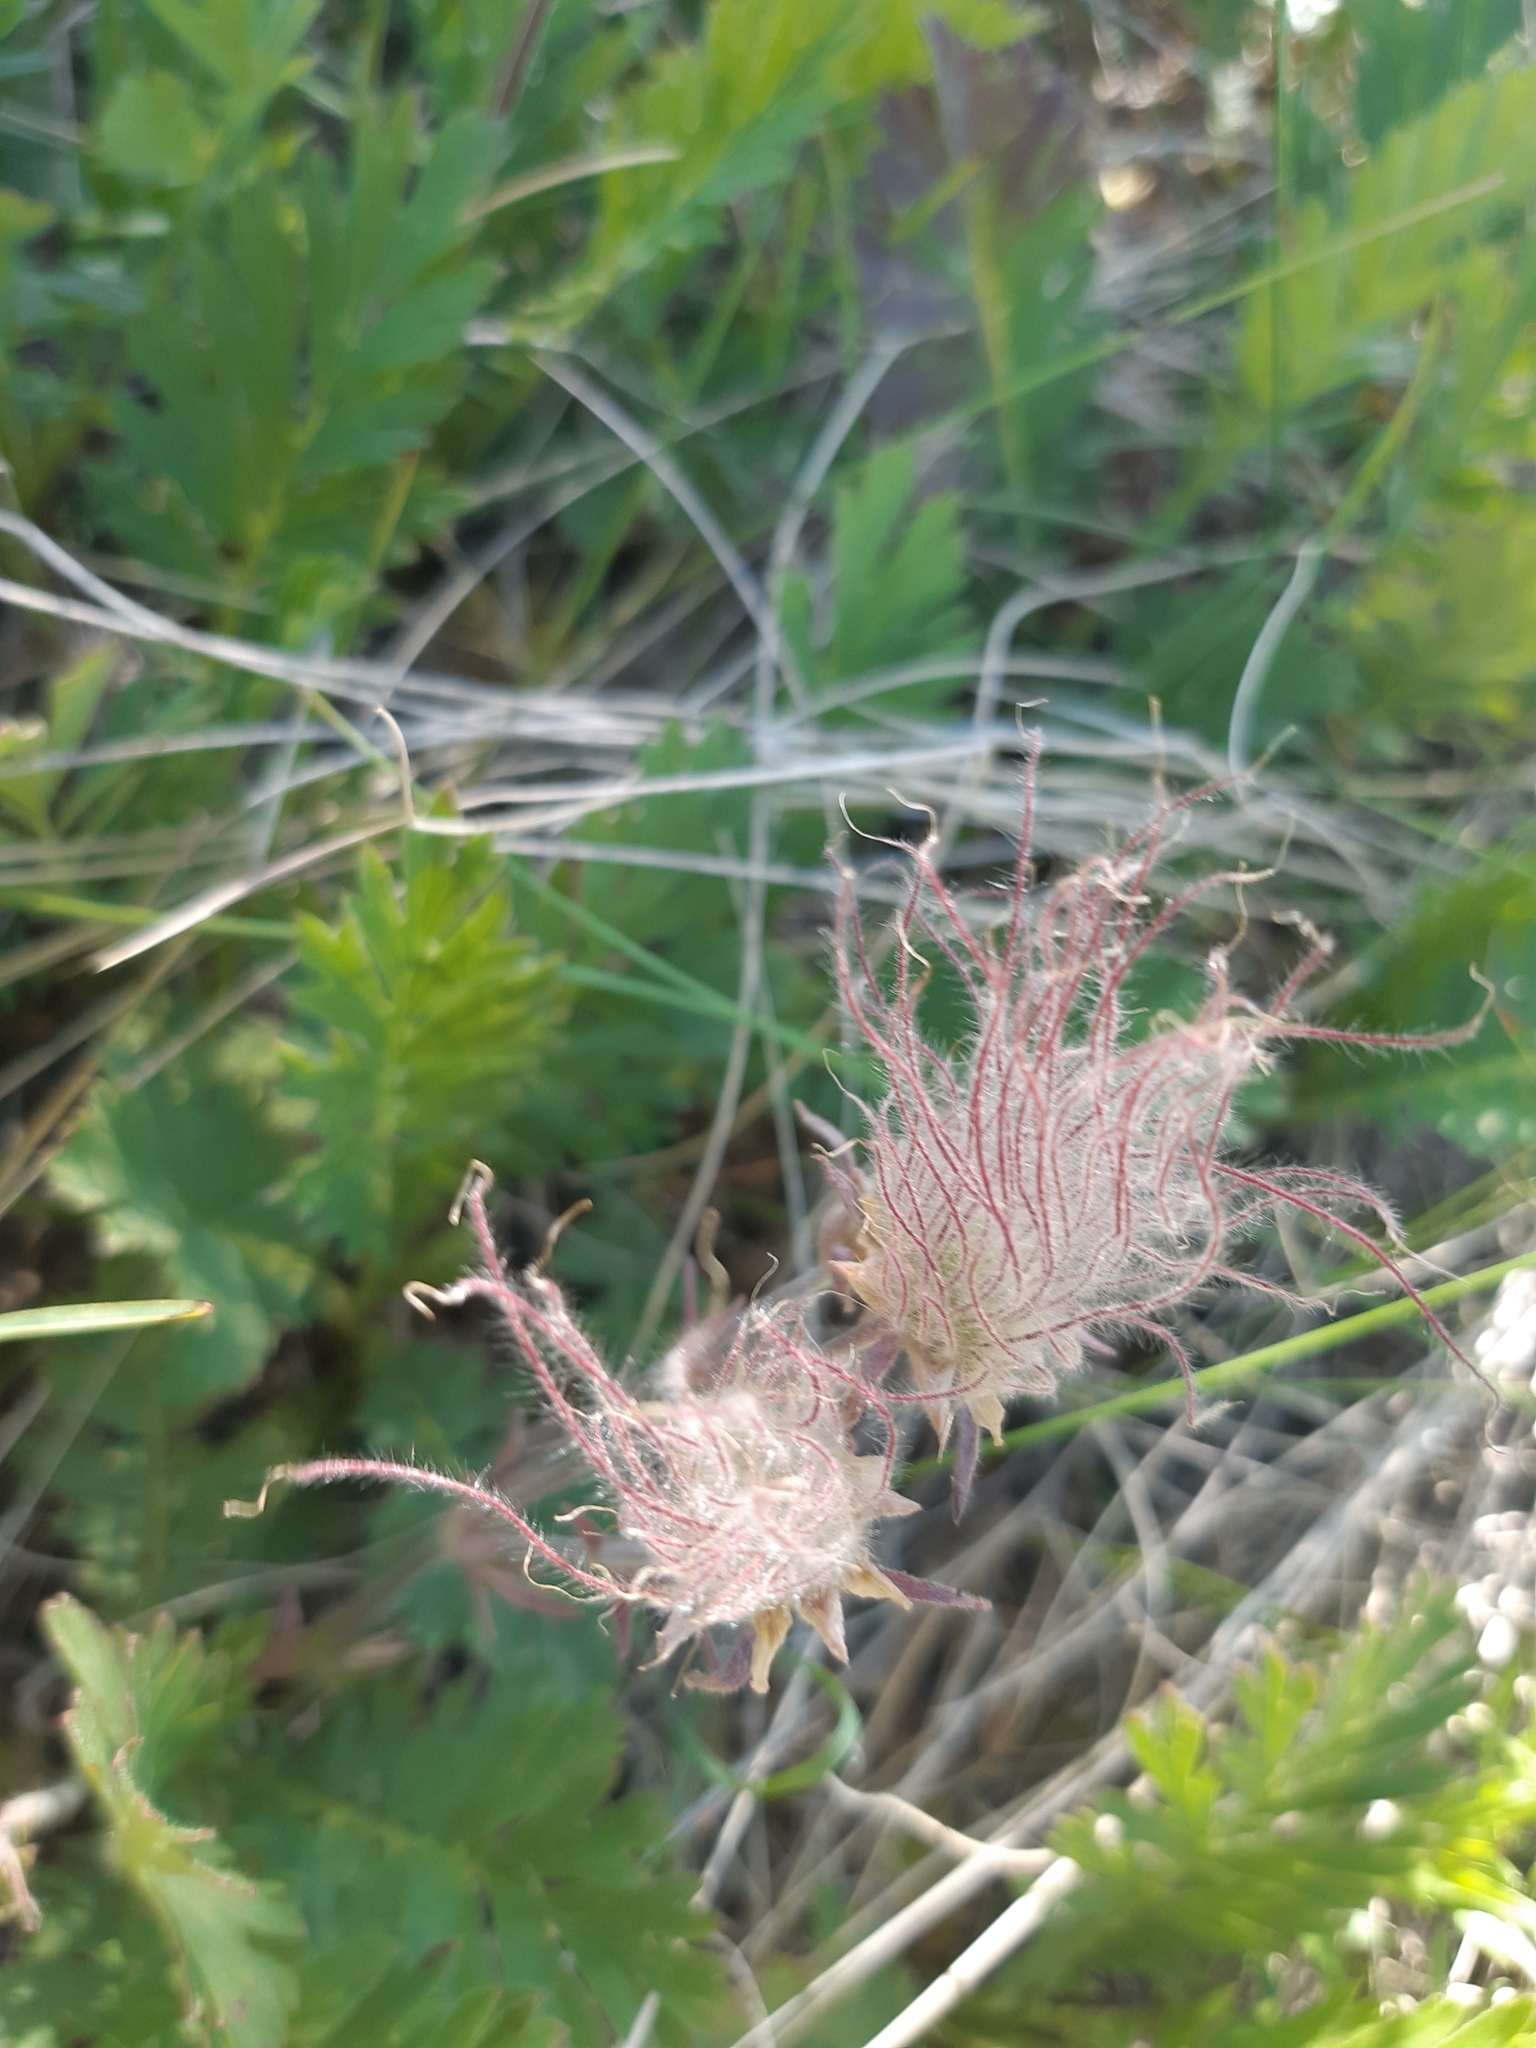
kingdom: Plantae
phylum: Tracheophyta
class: Magnoliopsida
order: Rosales
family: Rosaceae
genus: Geum
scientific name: Geum triflorum
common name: Old man's whiskers
